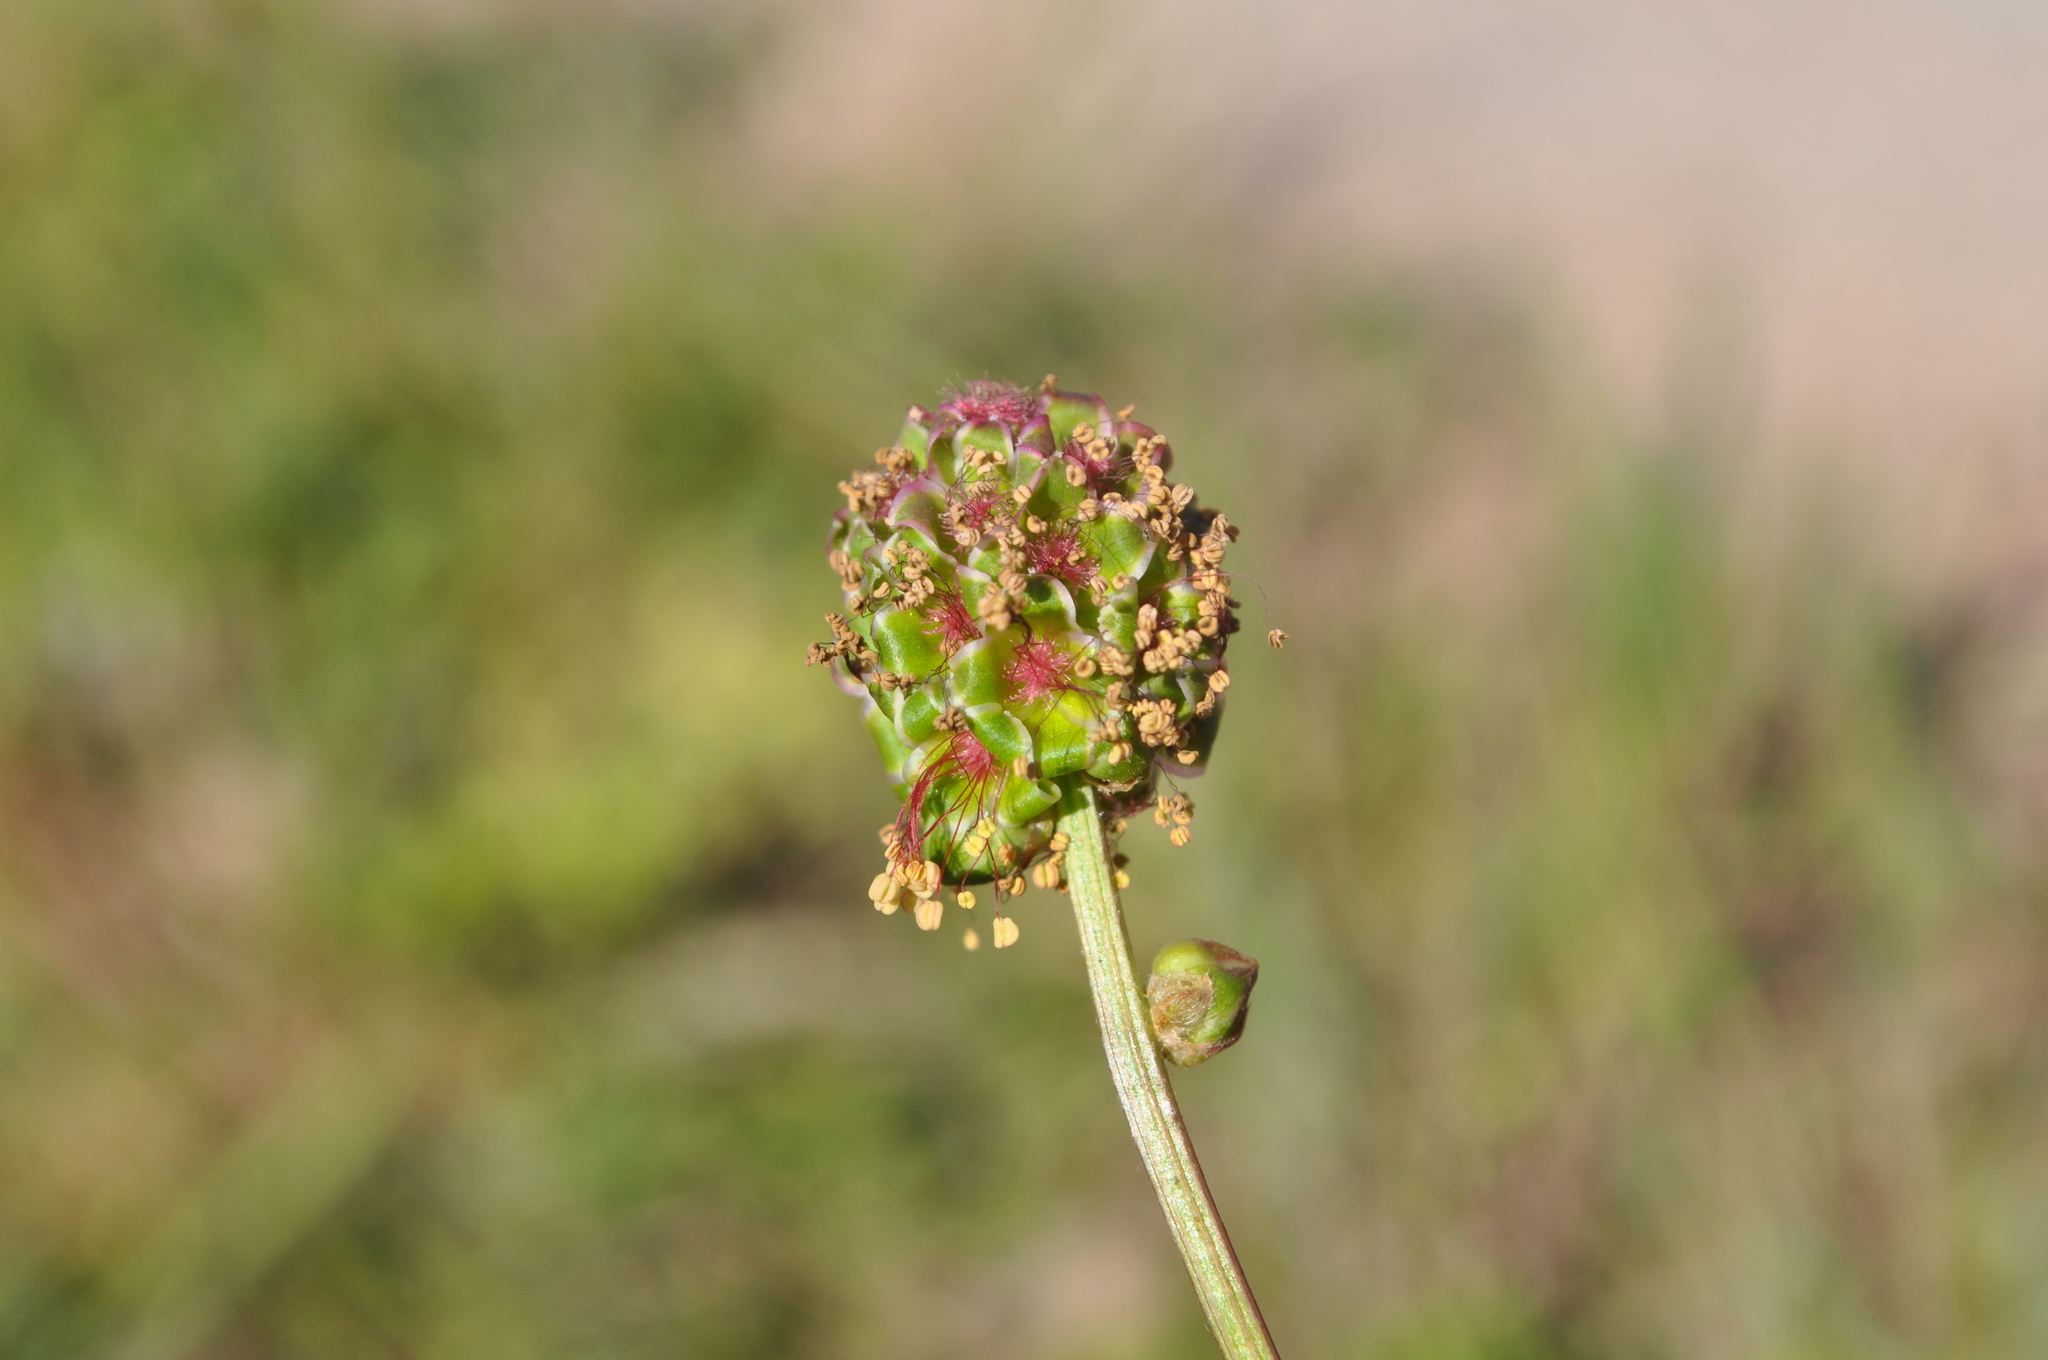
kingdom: Plantae
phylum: Tracheophyta
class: Magnoliopsida
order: Rosales
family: Rosaceae
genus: Poterium
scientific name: Poterium sanguisorba
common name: Salad burnet
